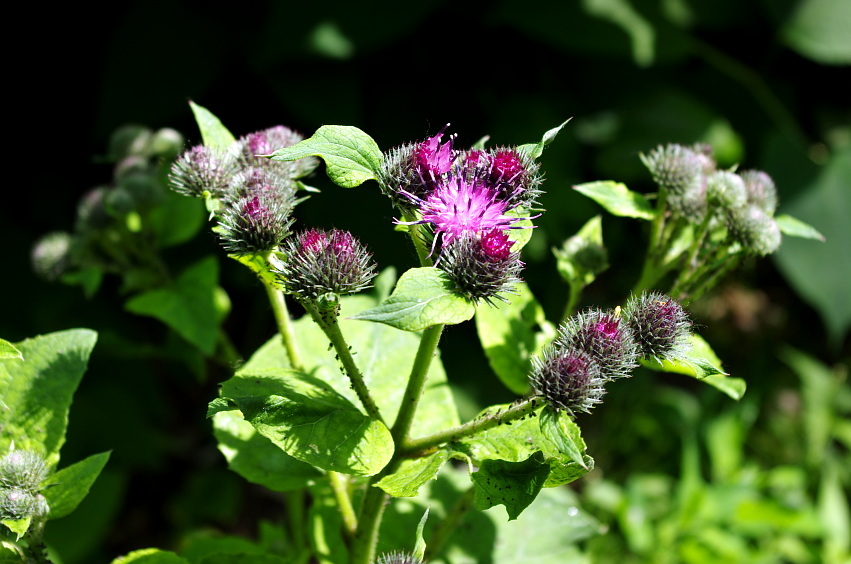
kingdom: Plantae
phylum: Tracheophyta
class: Magnoliopsida
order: Asterales
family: Asteraceae
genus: Arctium
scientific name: Arctium tomentosum
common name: Woolly burdock
